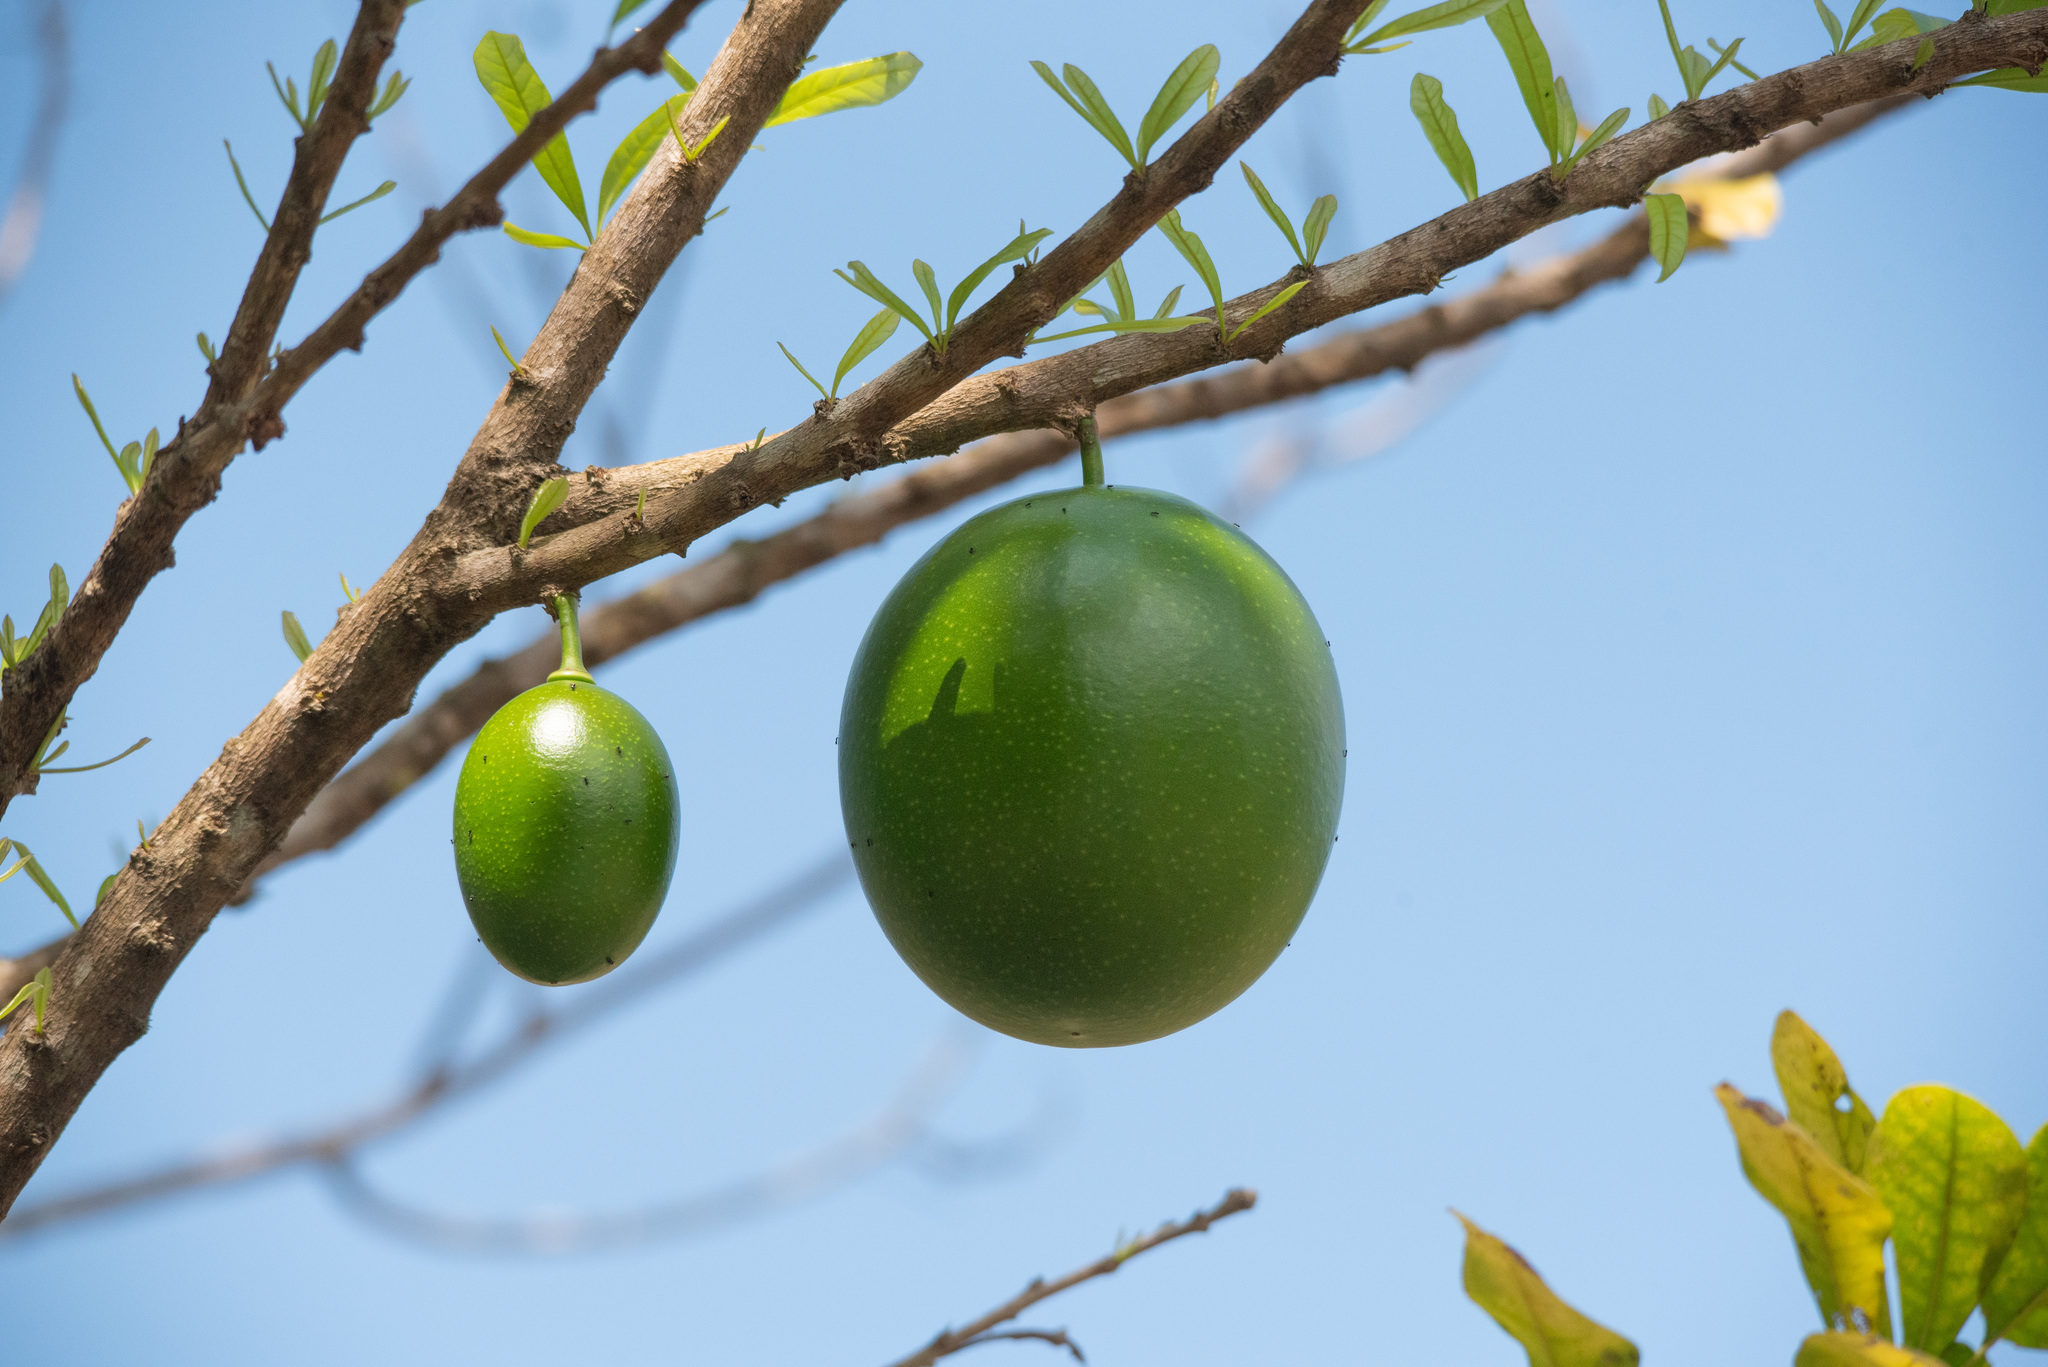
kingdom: Plantae
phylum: Tracheophyta
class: Magnoliopsida
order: Lamiales
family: Bignoniaceae
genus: Crescentia
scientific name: Crescentia cujete
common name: Calabash
